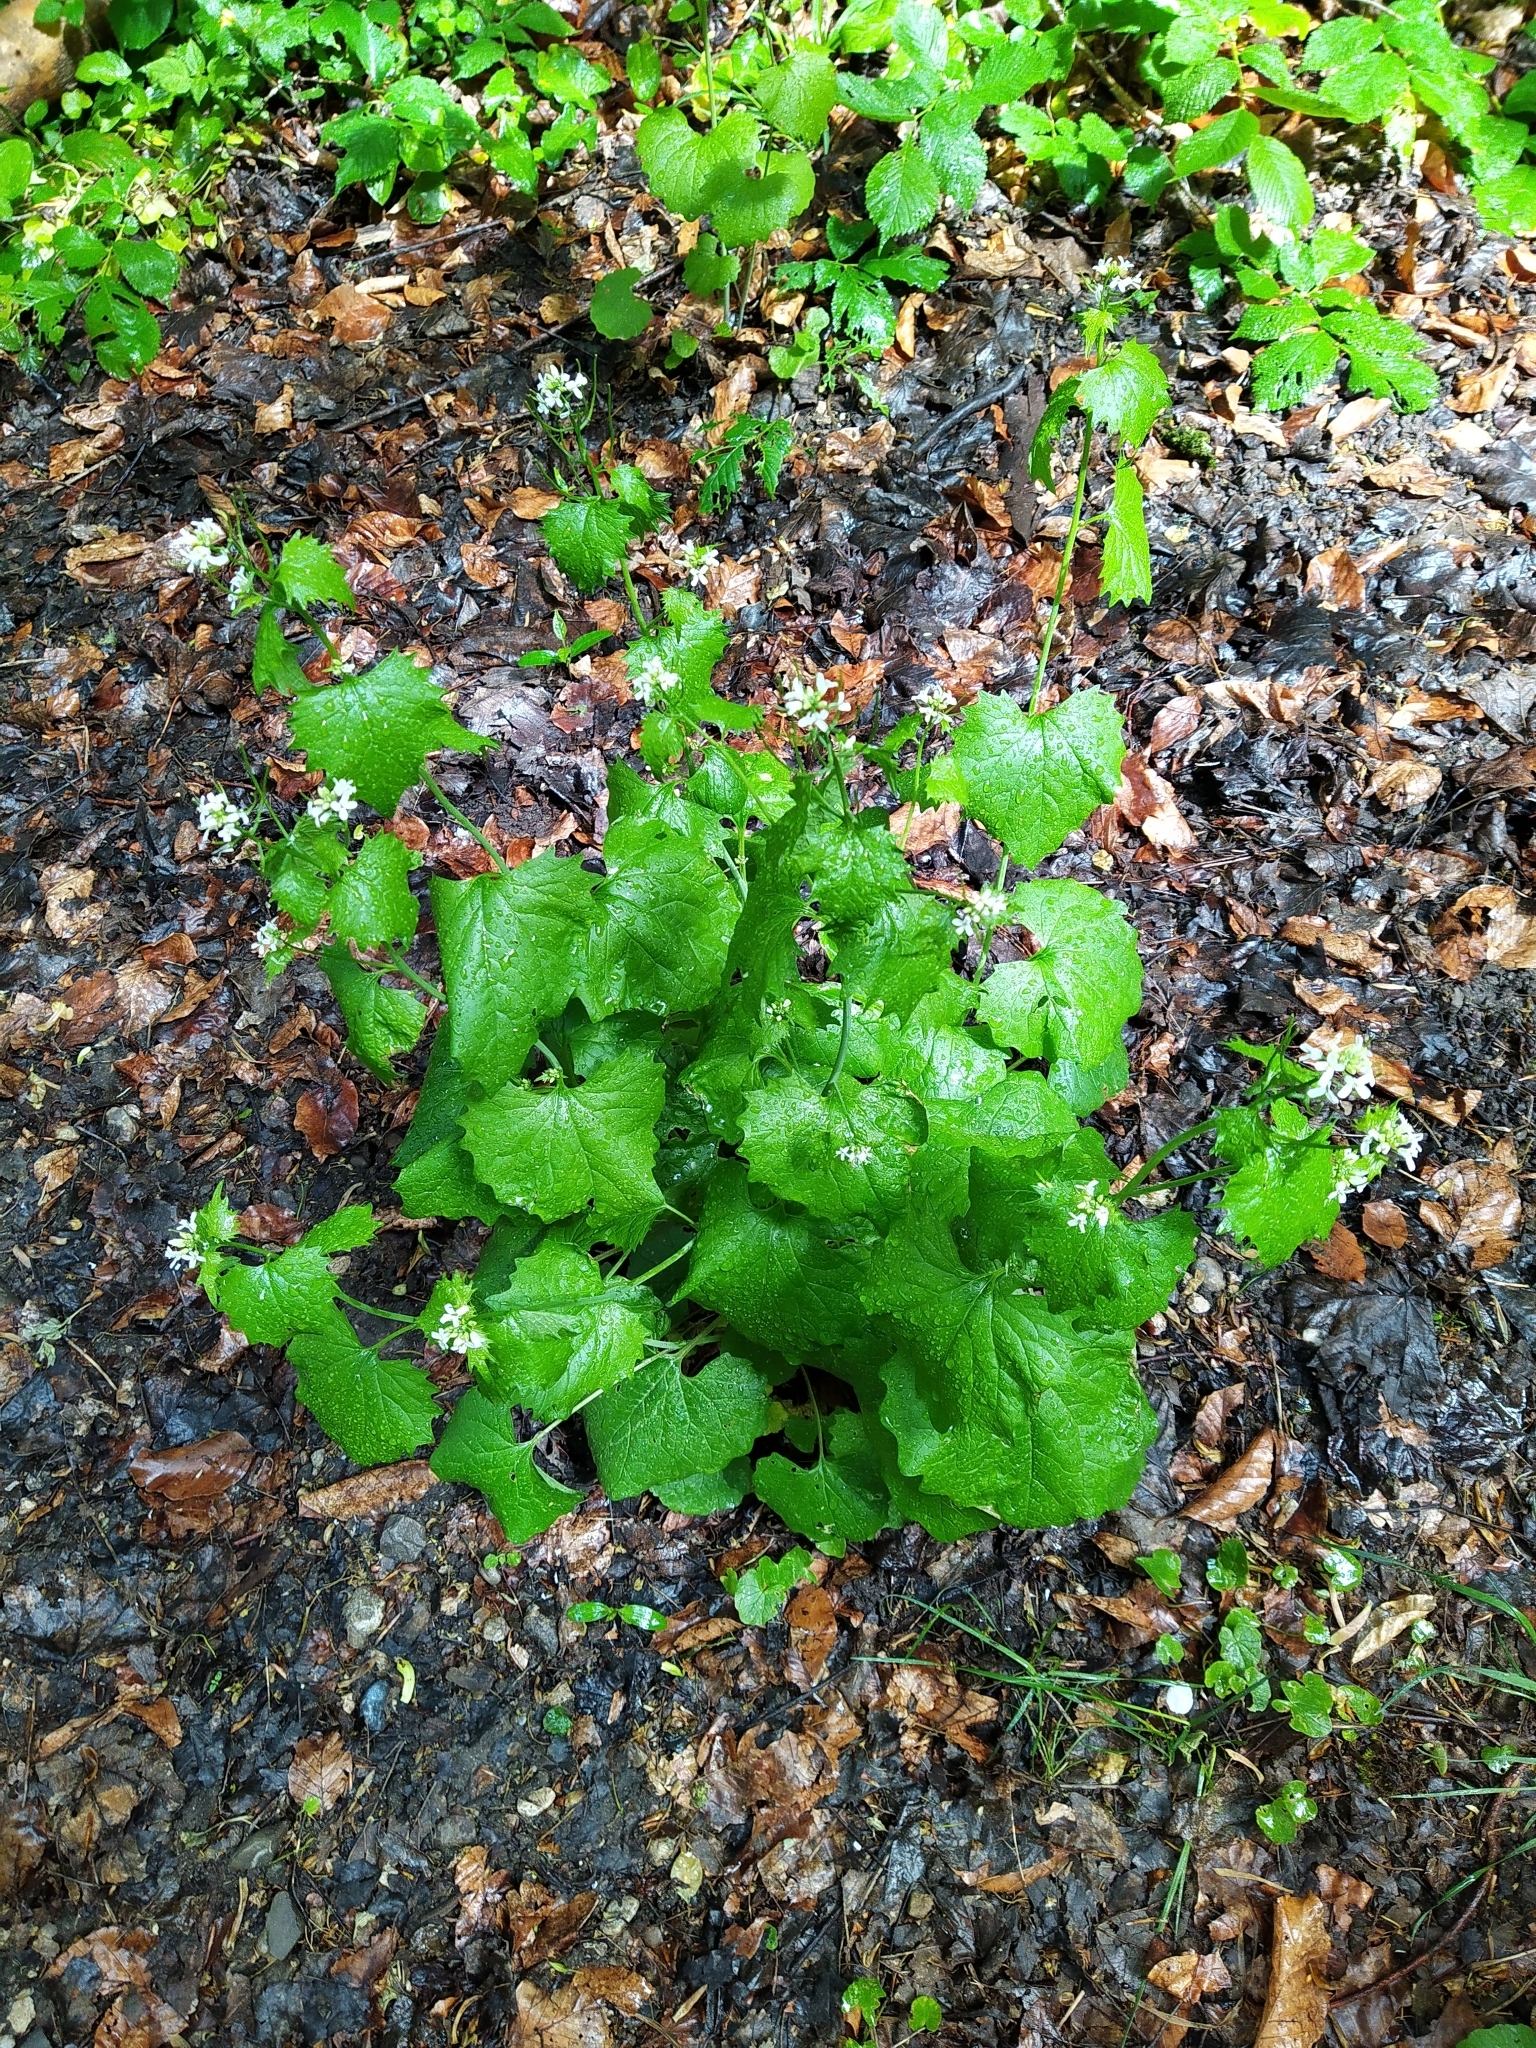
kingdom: Plantae
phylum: Tracheophyta
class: Magnoliopsida
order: Brassicales
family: Brassicaceae
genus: Alliaria
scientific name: Alliaria petiolata
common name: Garlic mustard
